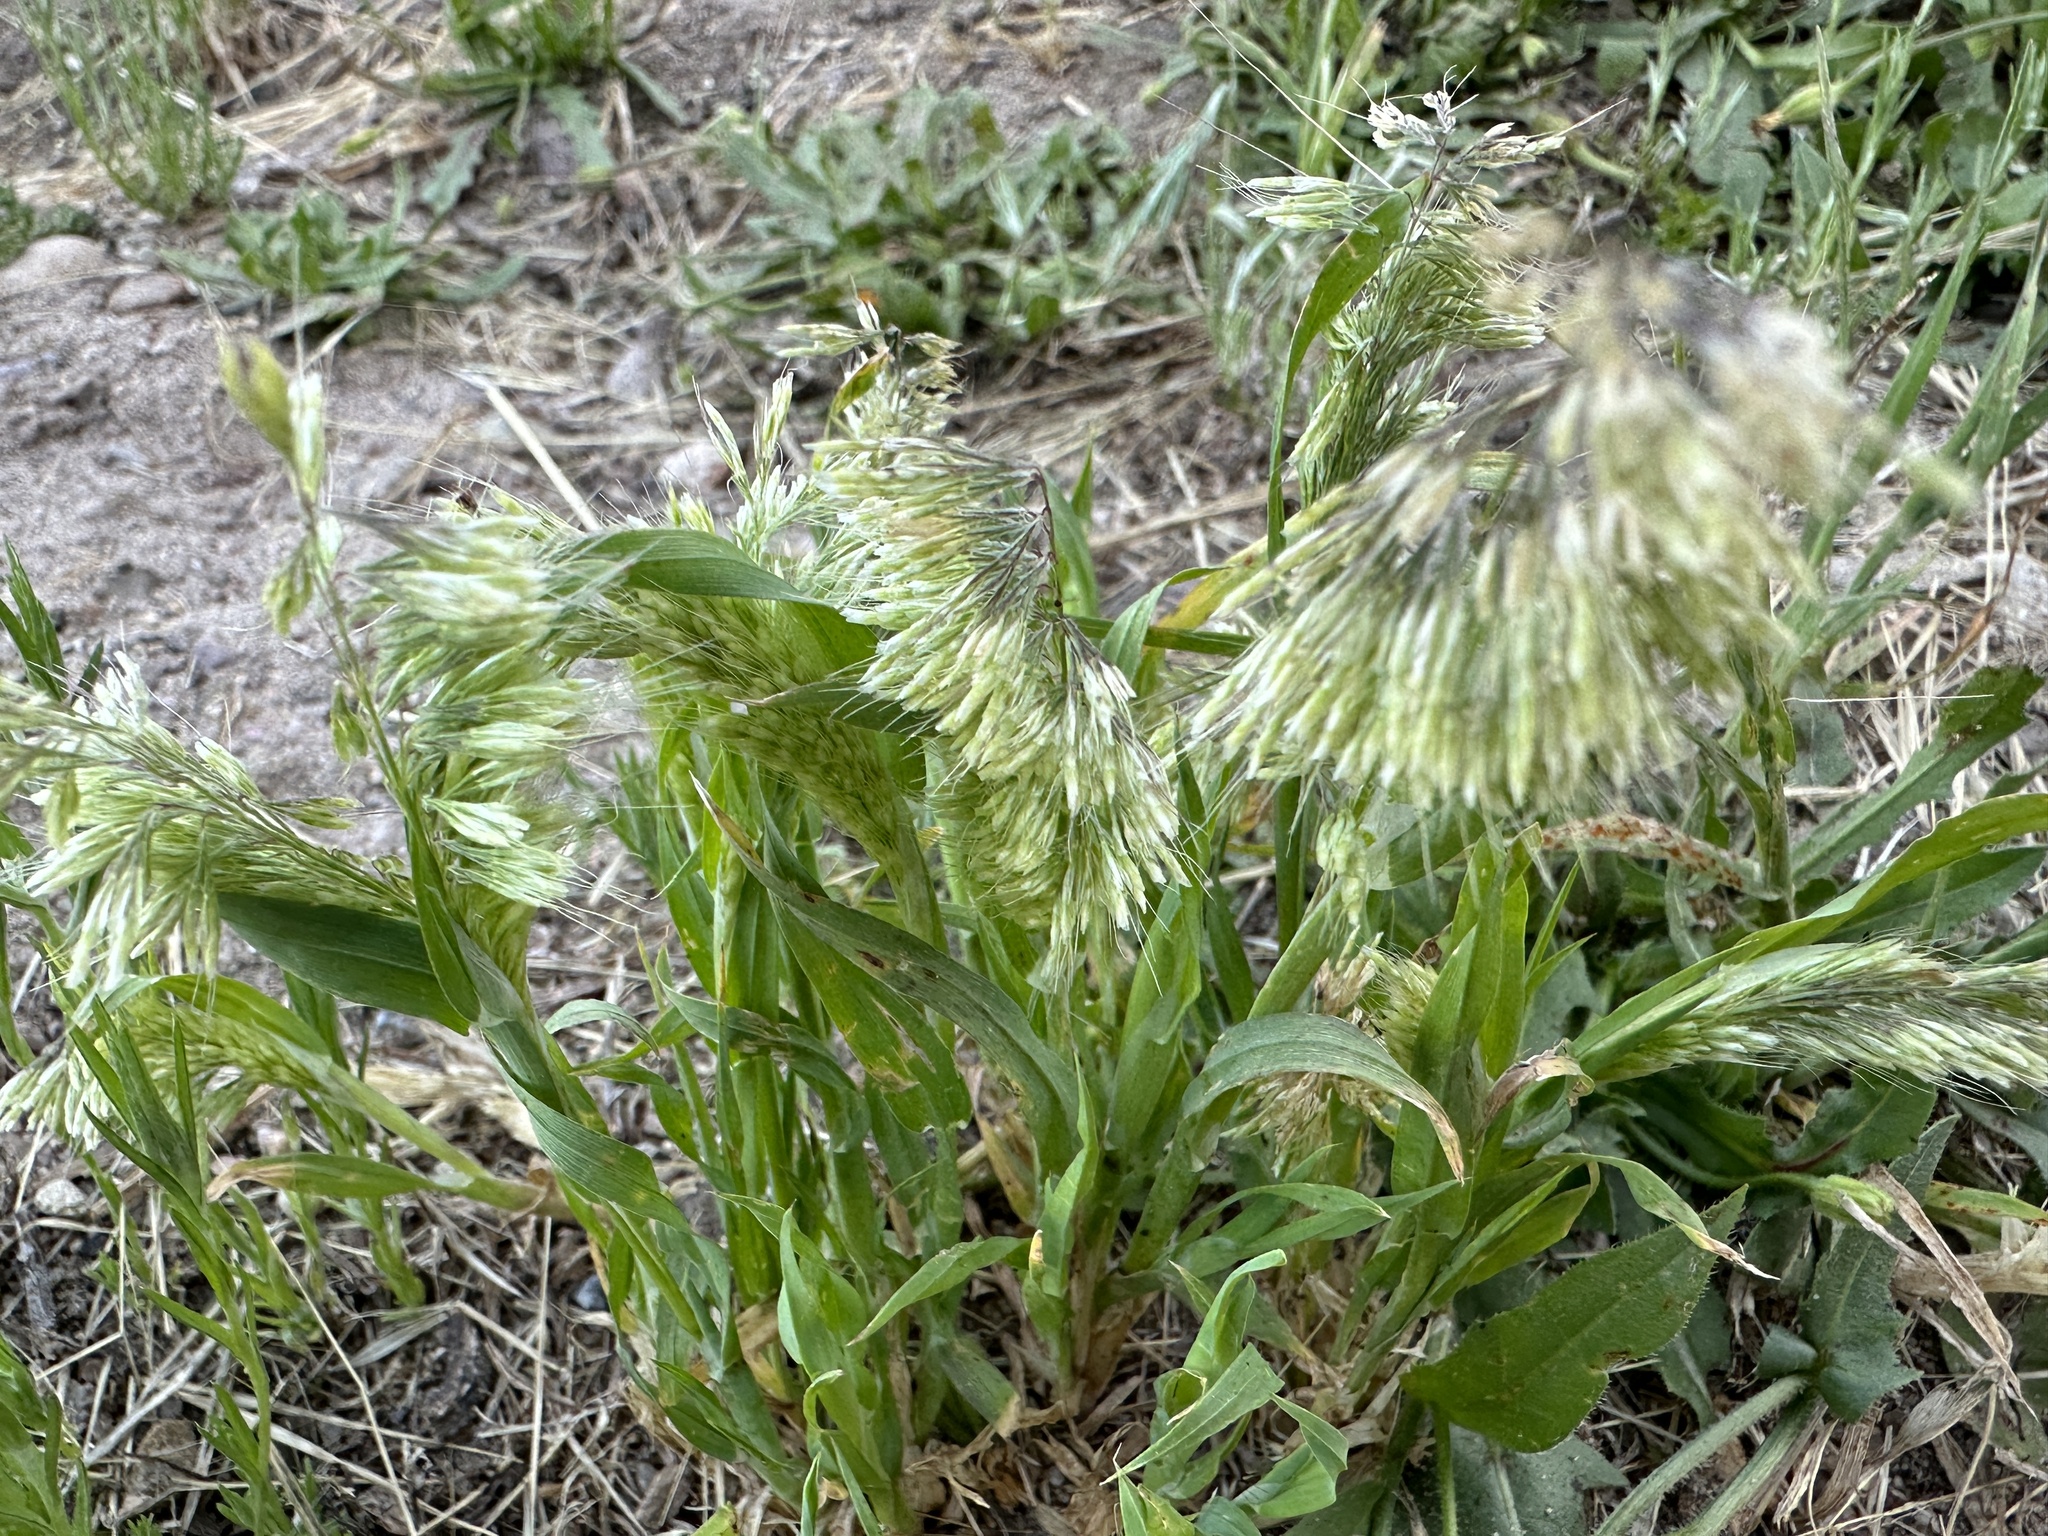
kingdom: Plantae
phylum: Tracheophyta
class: Liliopsida
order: Poales
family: Poaceae
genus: Lamarckia
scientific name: Lamarckia aurea
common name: Golden dog's-tail
